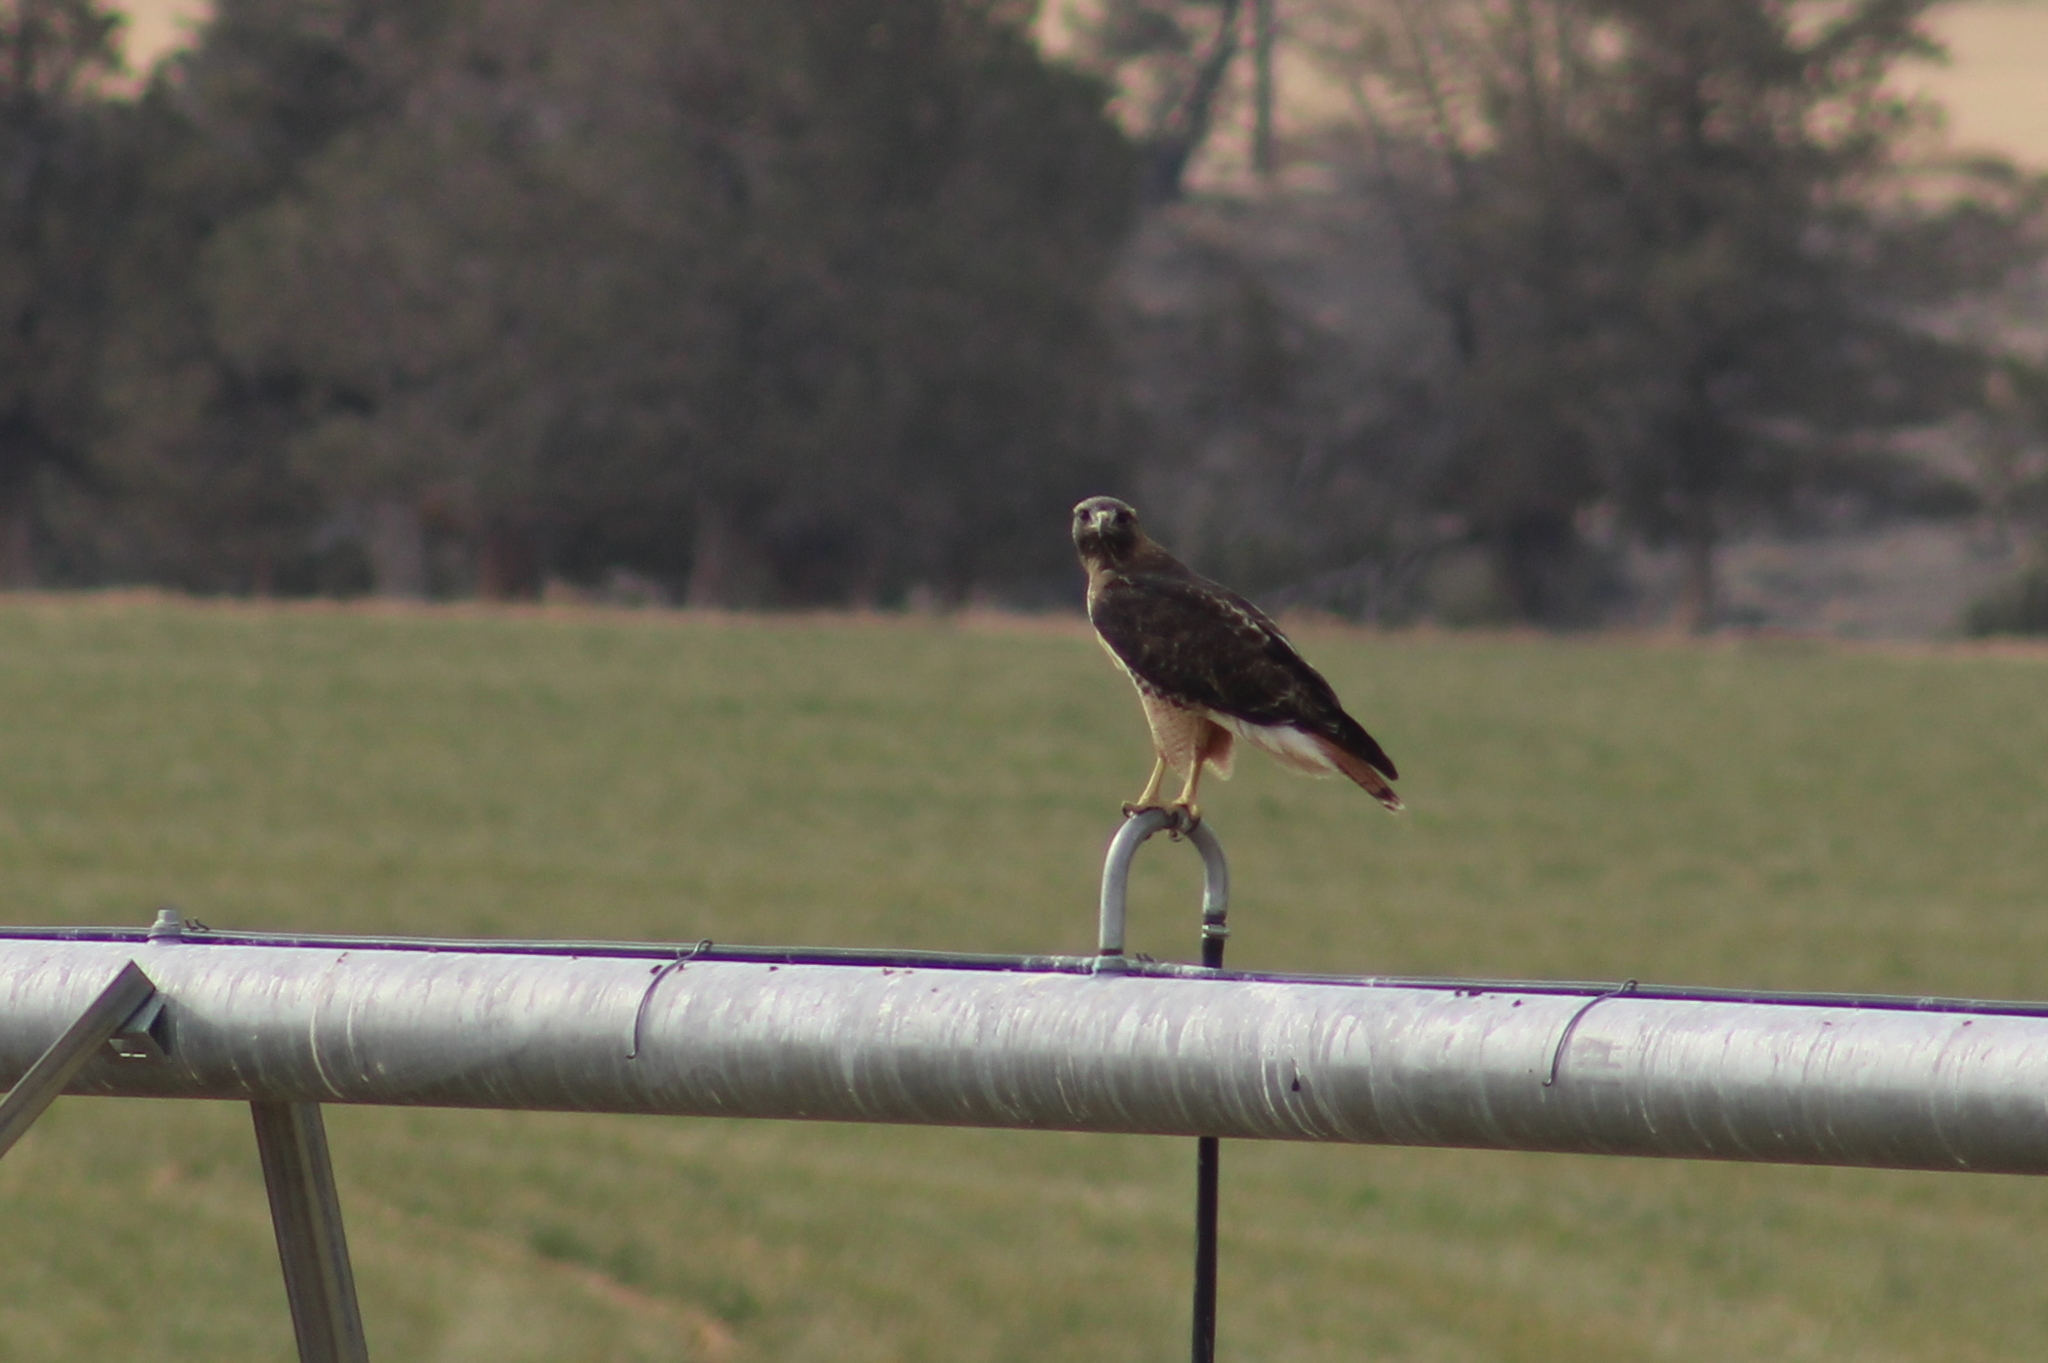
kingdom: Animalia
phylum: Chordata
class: Aves
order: Accipitriformes
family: Accipitridae
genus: Buteo
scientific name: Buteo jamaicensis
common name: Red-tailed hawk
